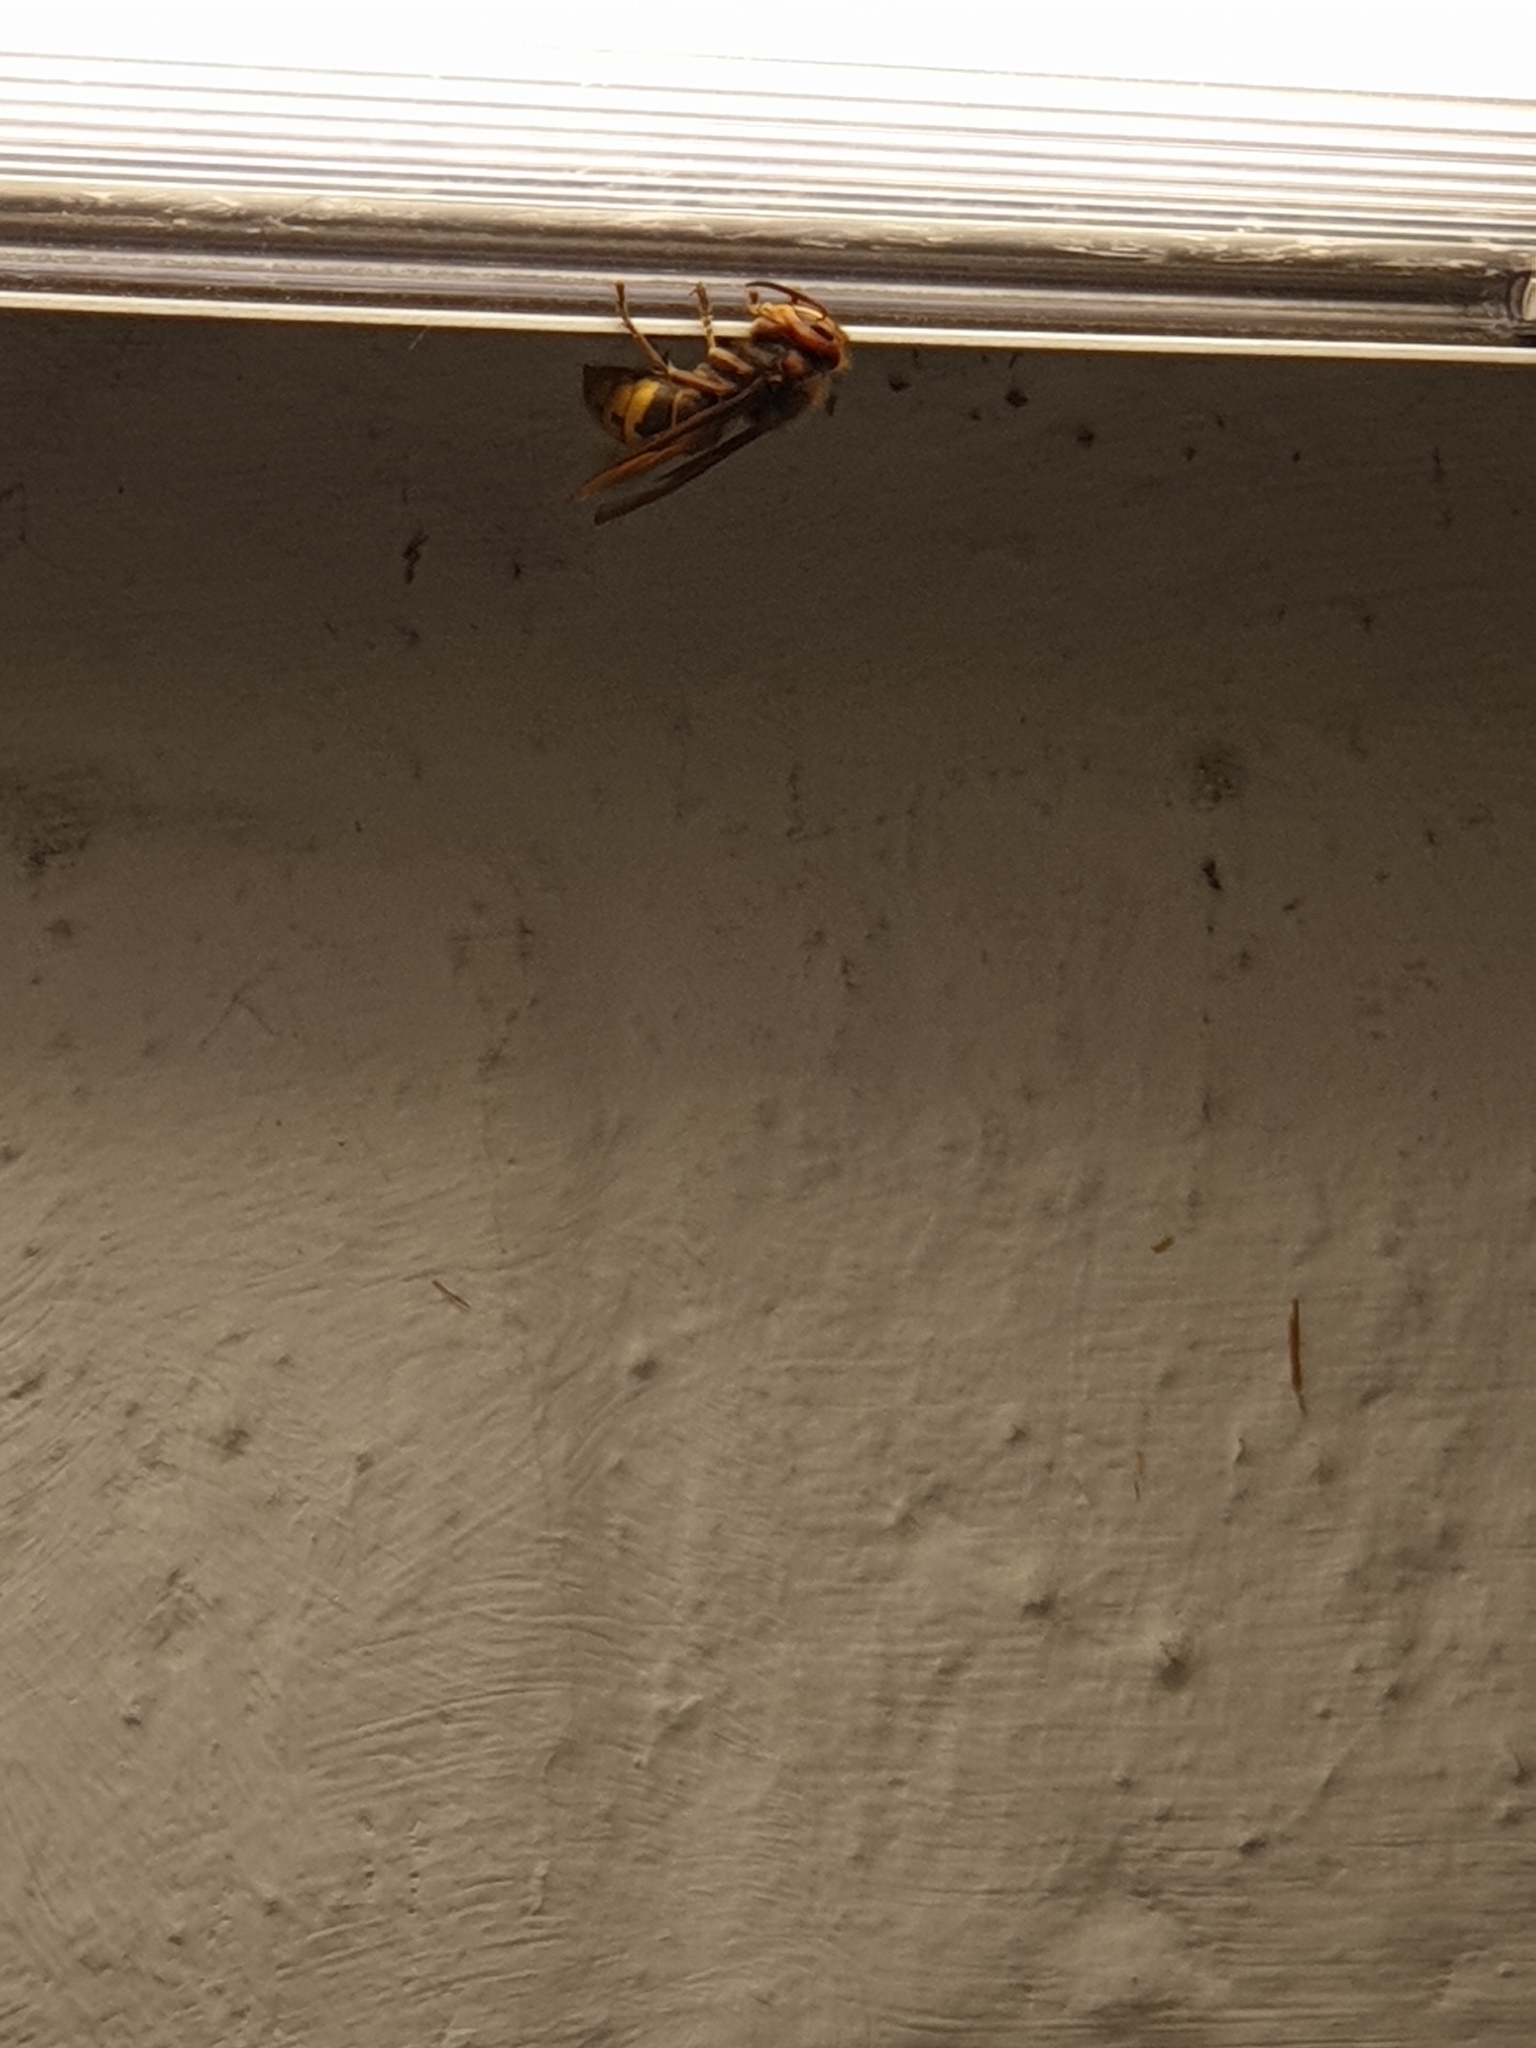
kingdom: Animalia
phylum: Arthropoda
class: Insecta
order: Hymenoptera
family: Vespidae
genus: Vespa
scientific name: Vespa crabro
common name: Hornet
